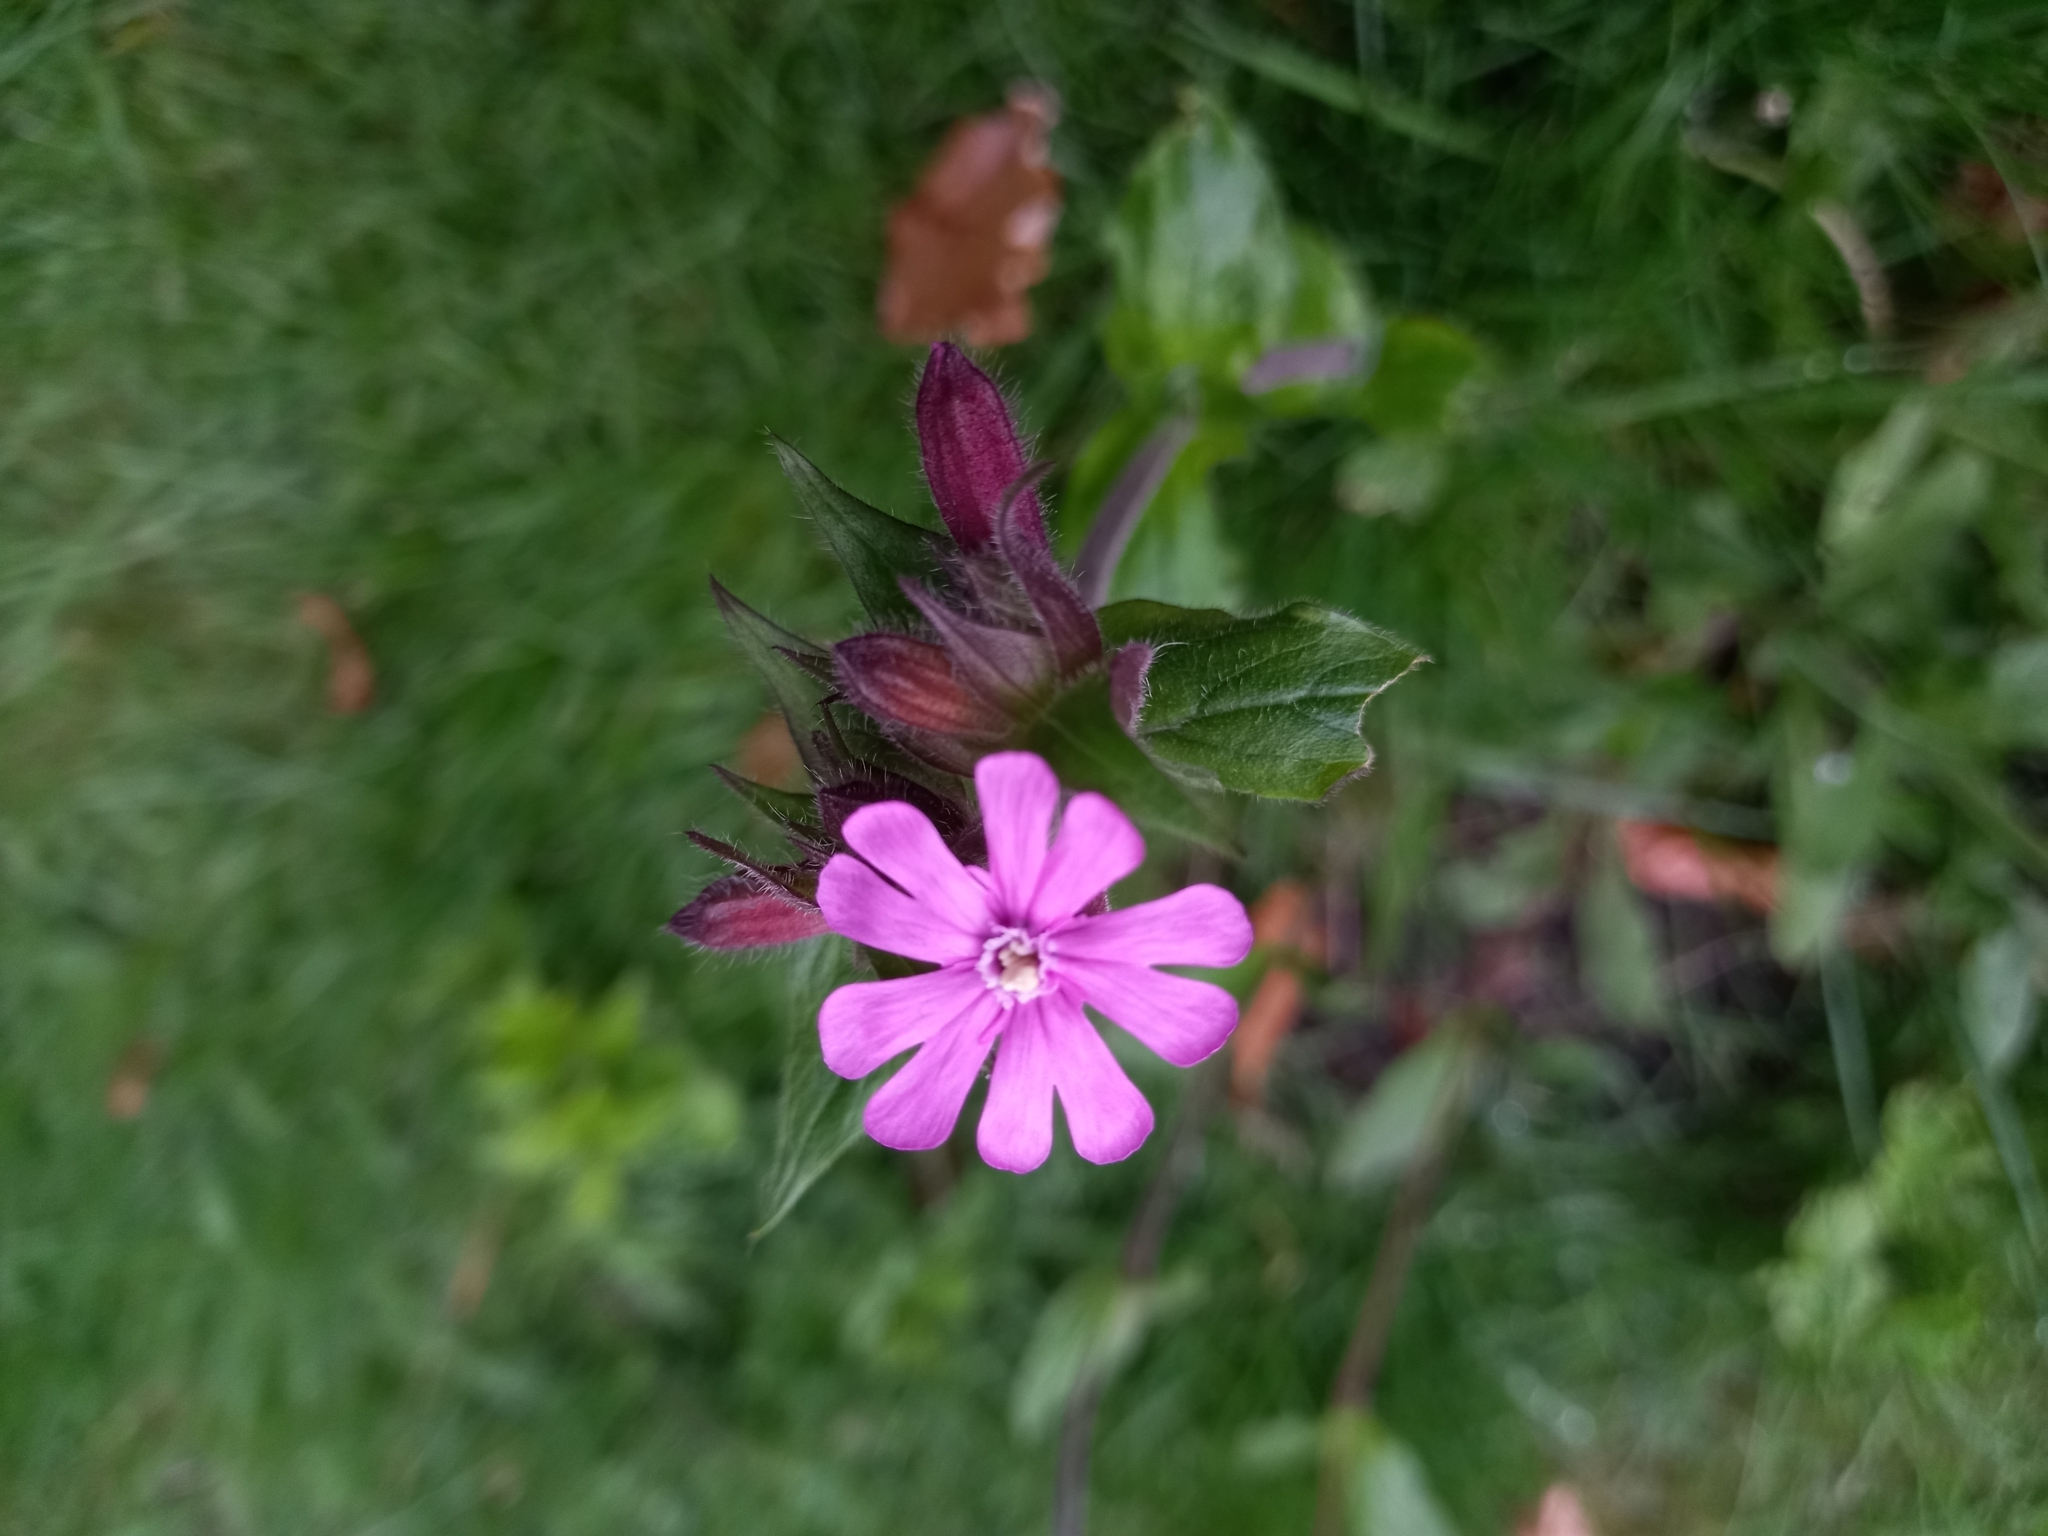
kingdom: Plantae
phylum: Tracheophyta
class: Magnoliopsida
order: Caryophyllales
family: Caryophyllaceae
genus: Silene
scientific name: Silene dioica
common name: Red campion
